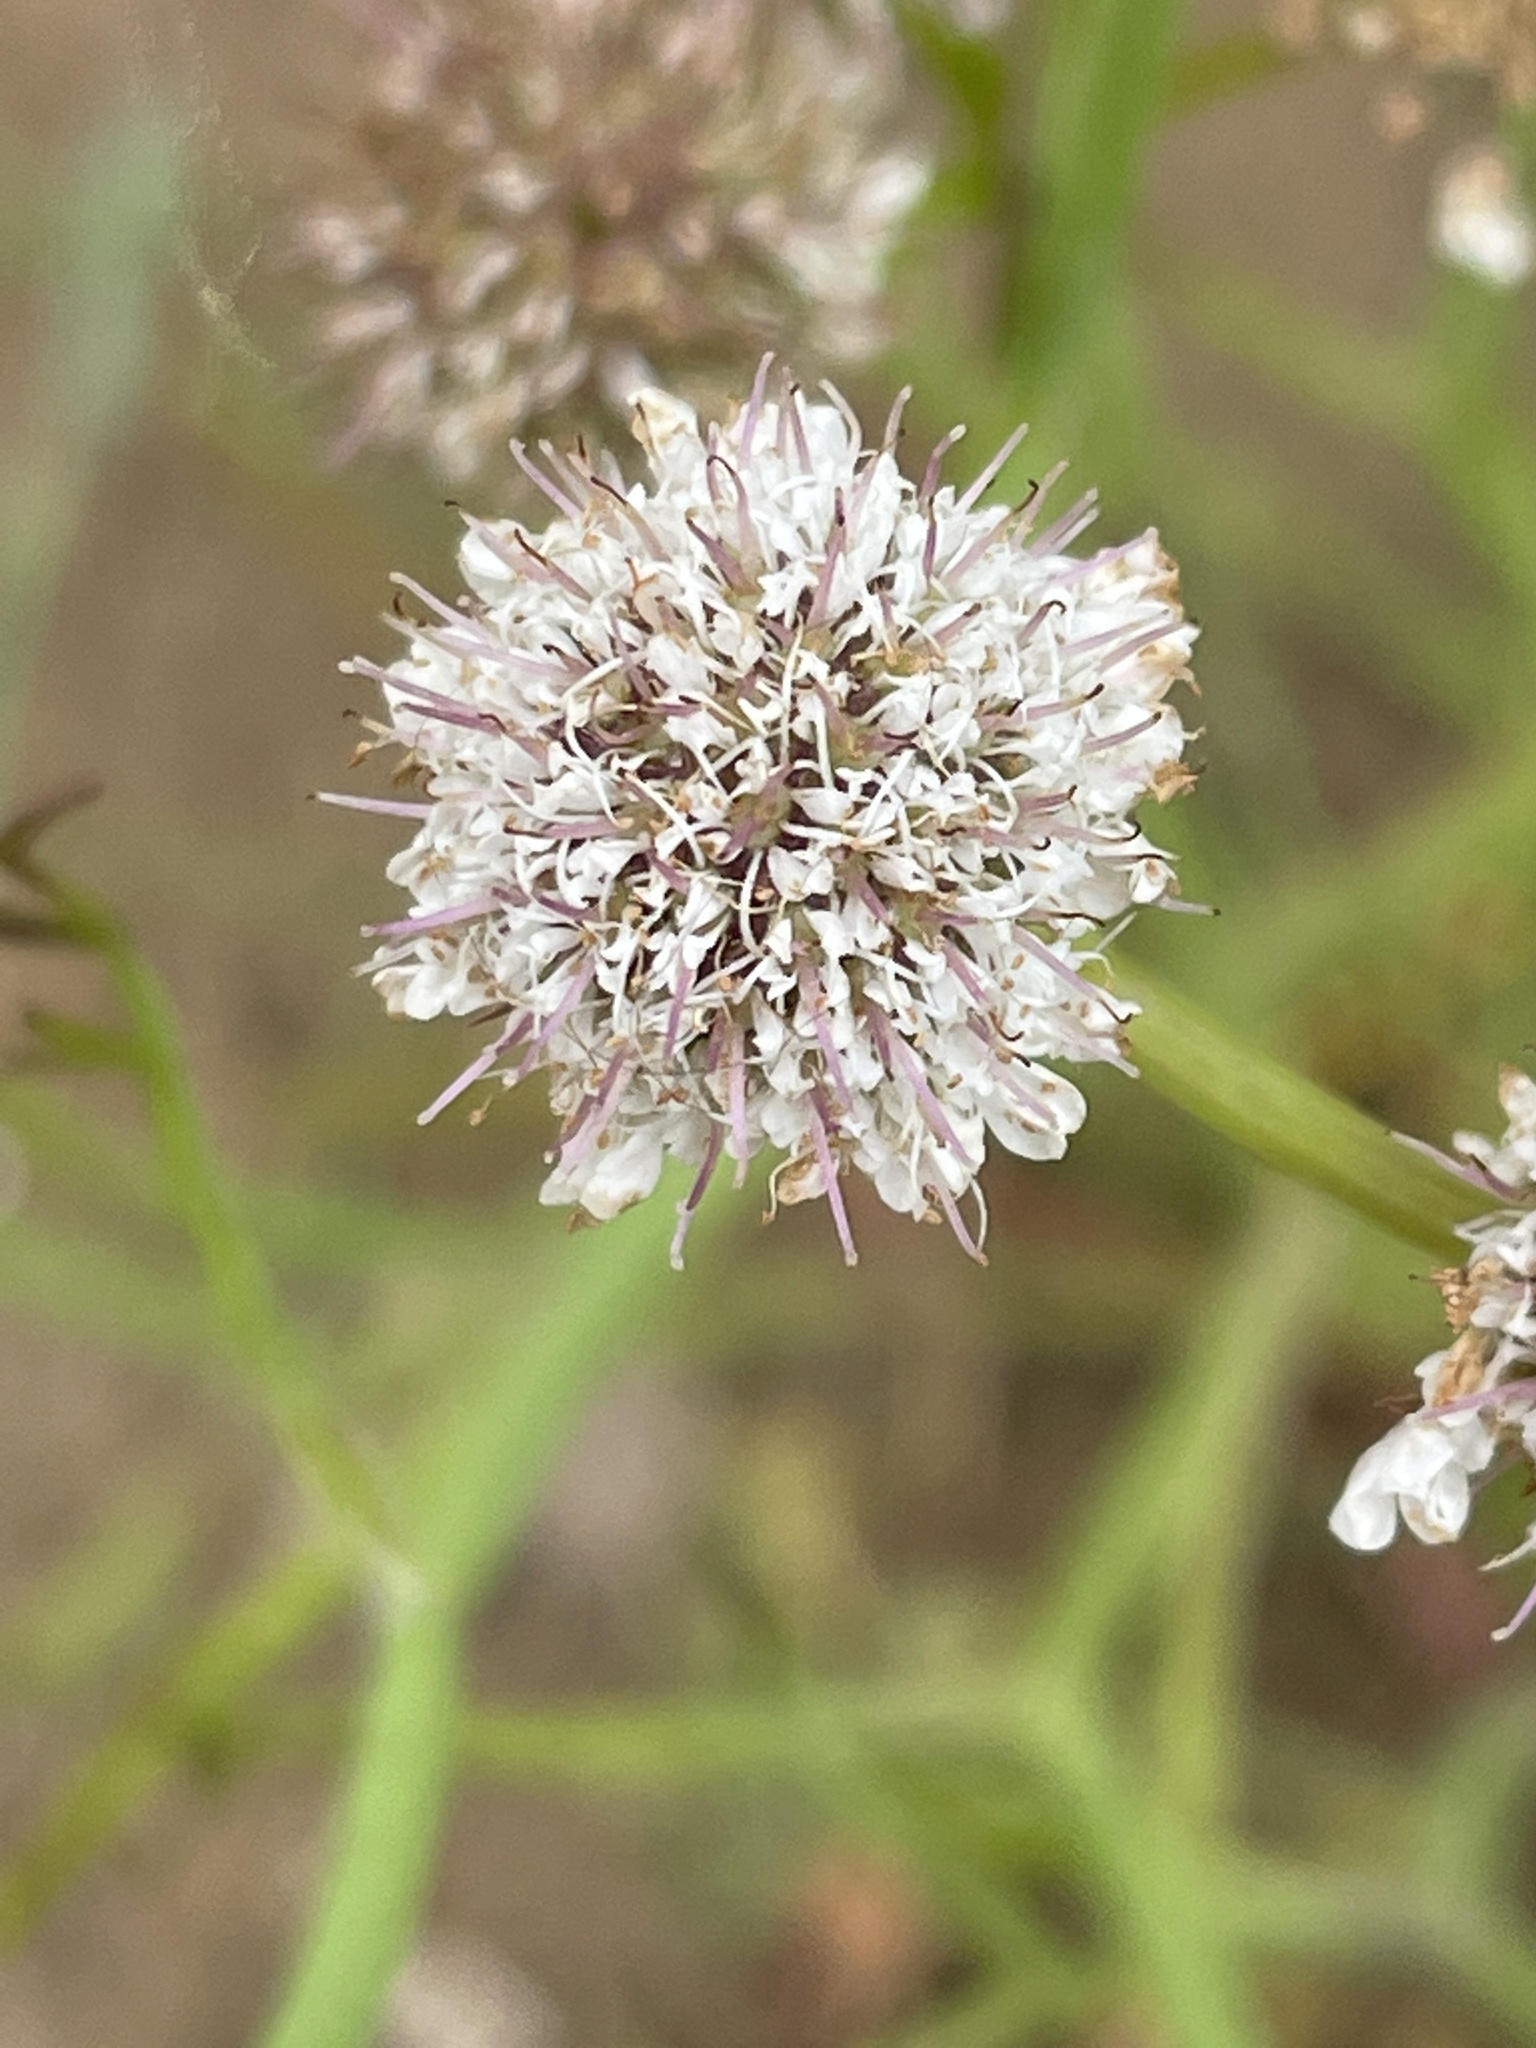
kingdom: Plantae
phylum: Tracheophyta
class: Magnoliopsida
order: Apiales
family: Apiaceae
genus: Oenanthe
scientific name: Oenanthe fistulosa
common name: Tubular water-dropwort
